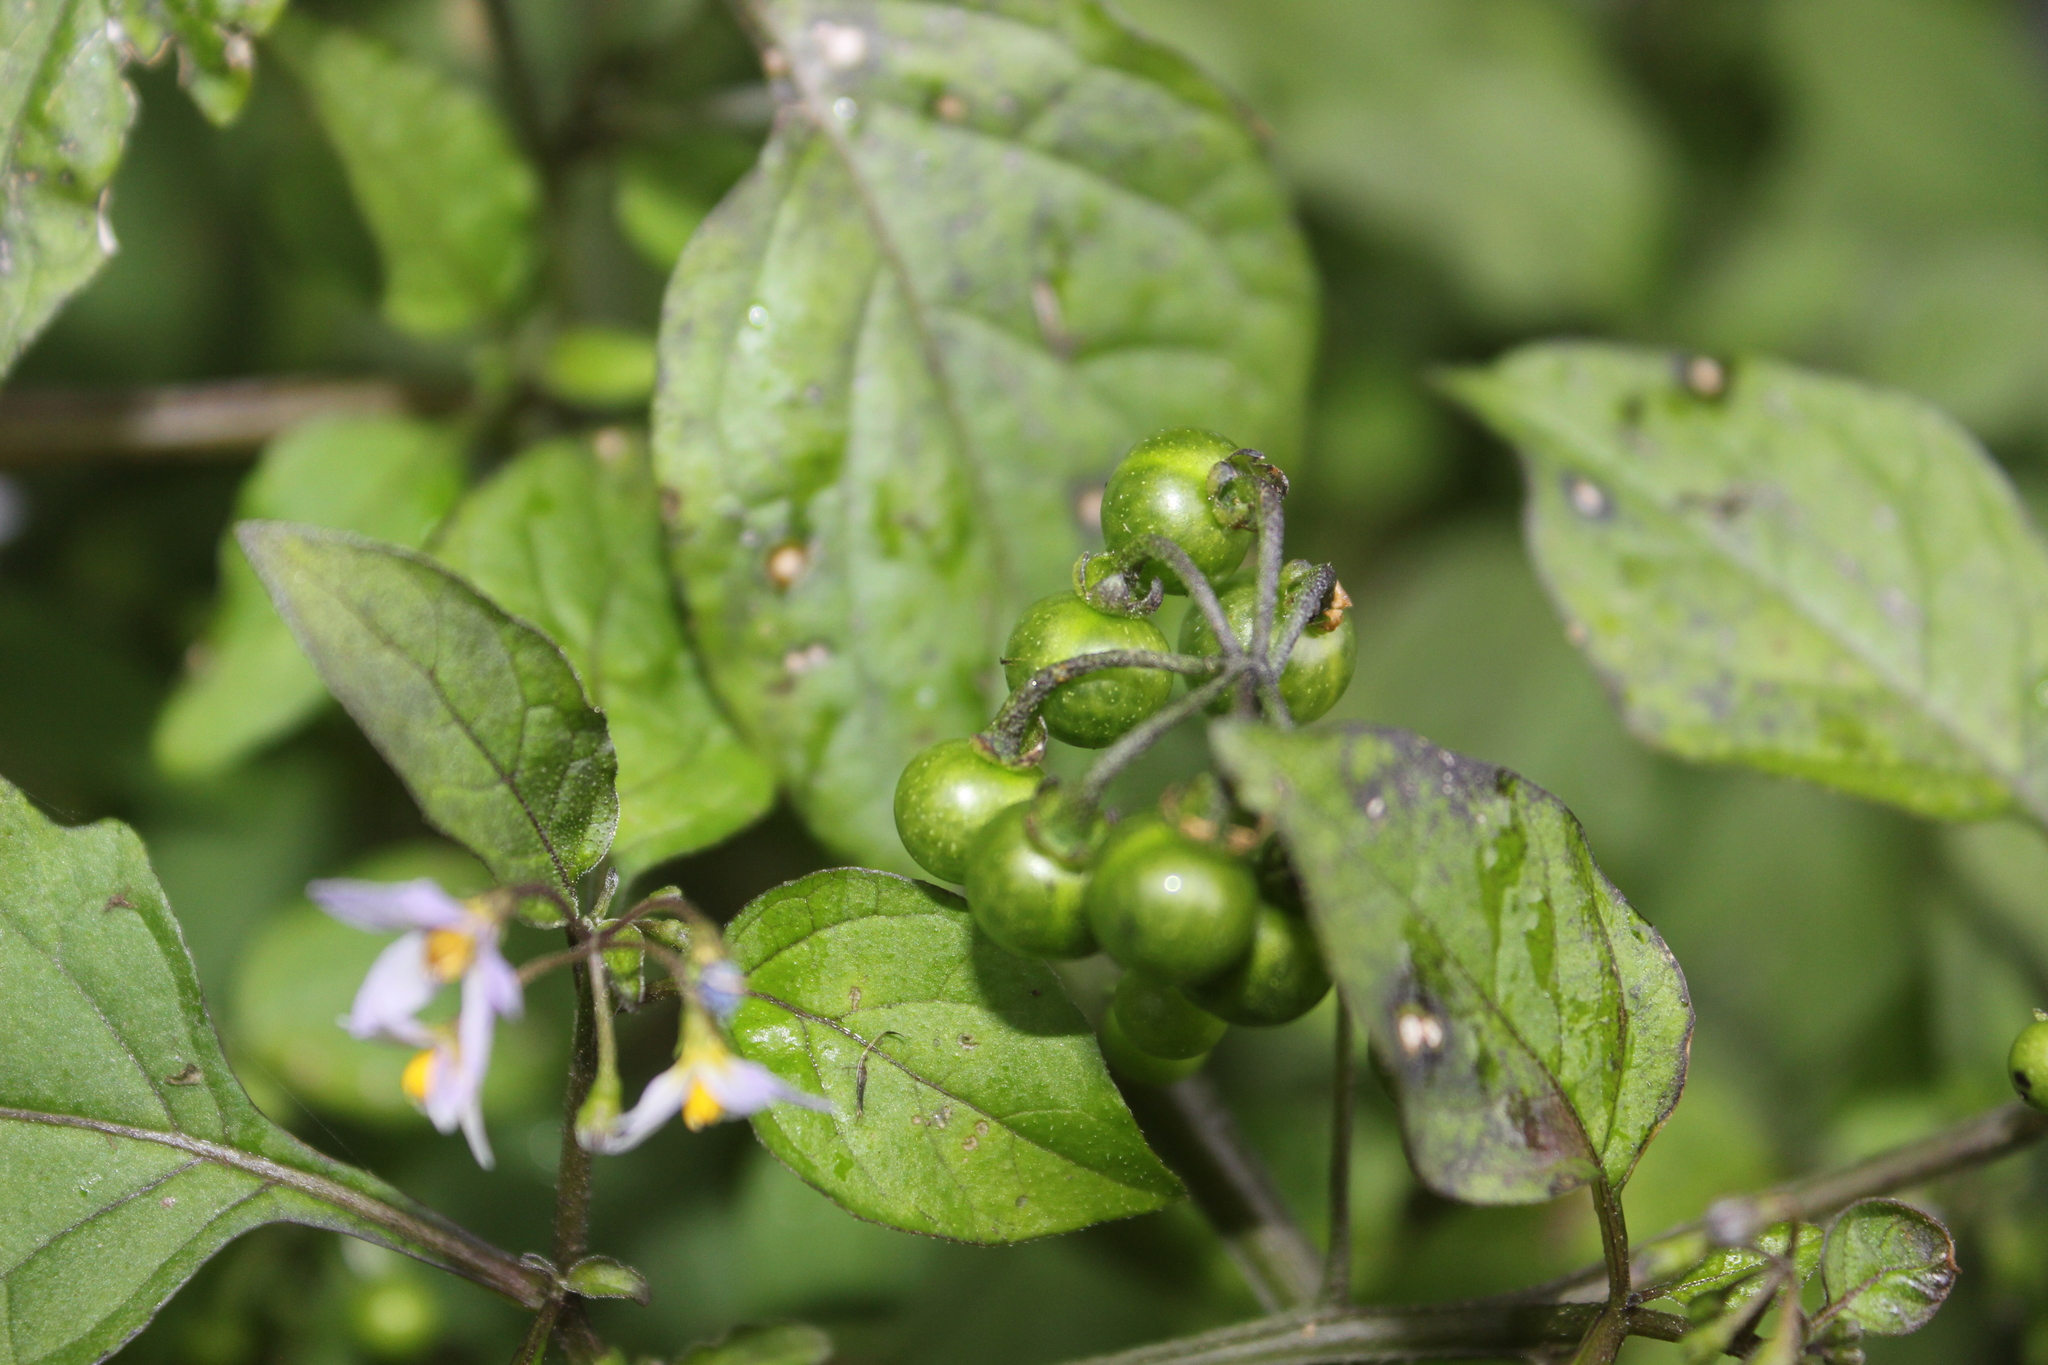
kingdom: Plantae
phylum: Tracheophyta
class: Magnoliopsida
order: Solanales
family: Solanaceae
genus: Solanum
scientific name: Solanum americanum
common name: American black nightshade
